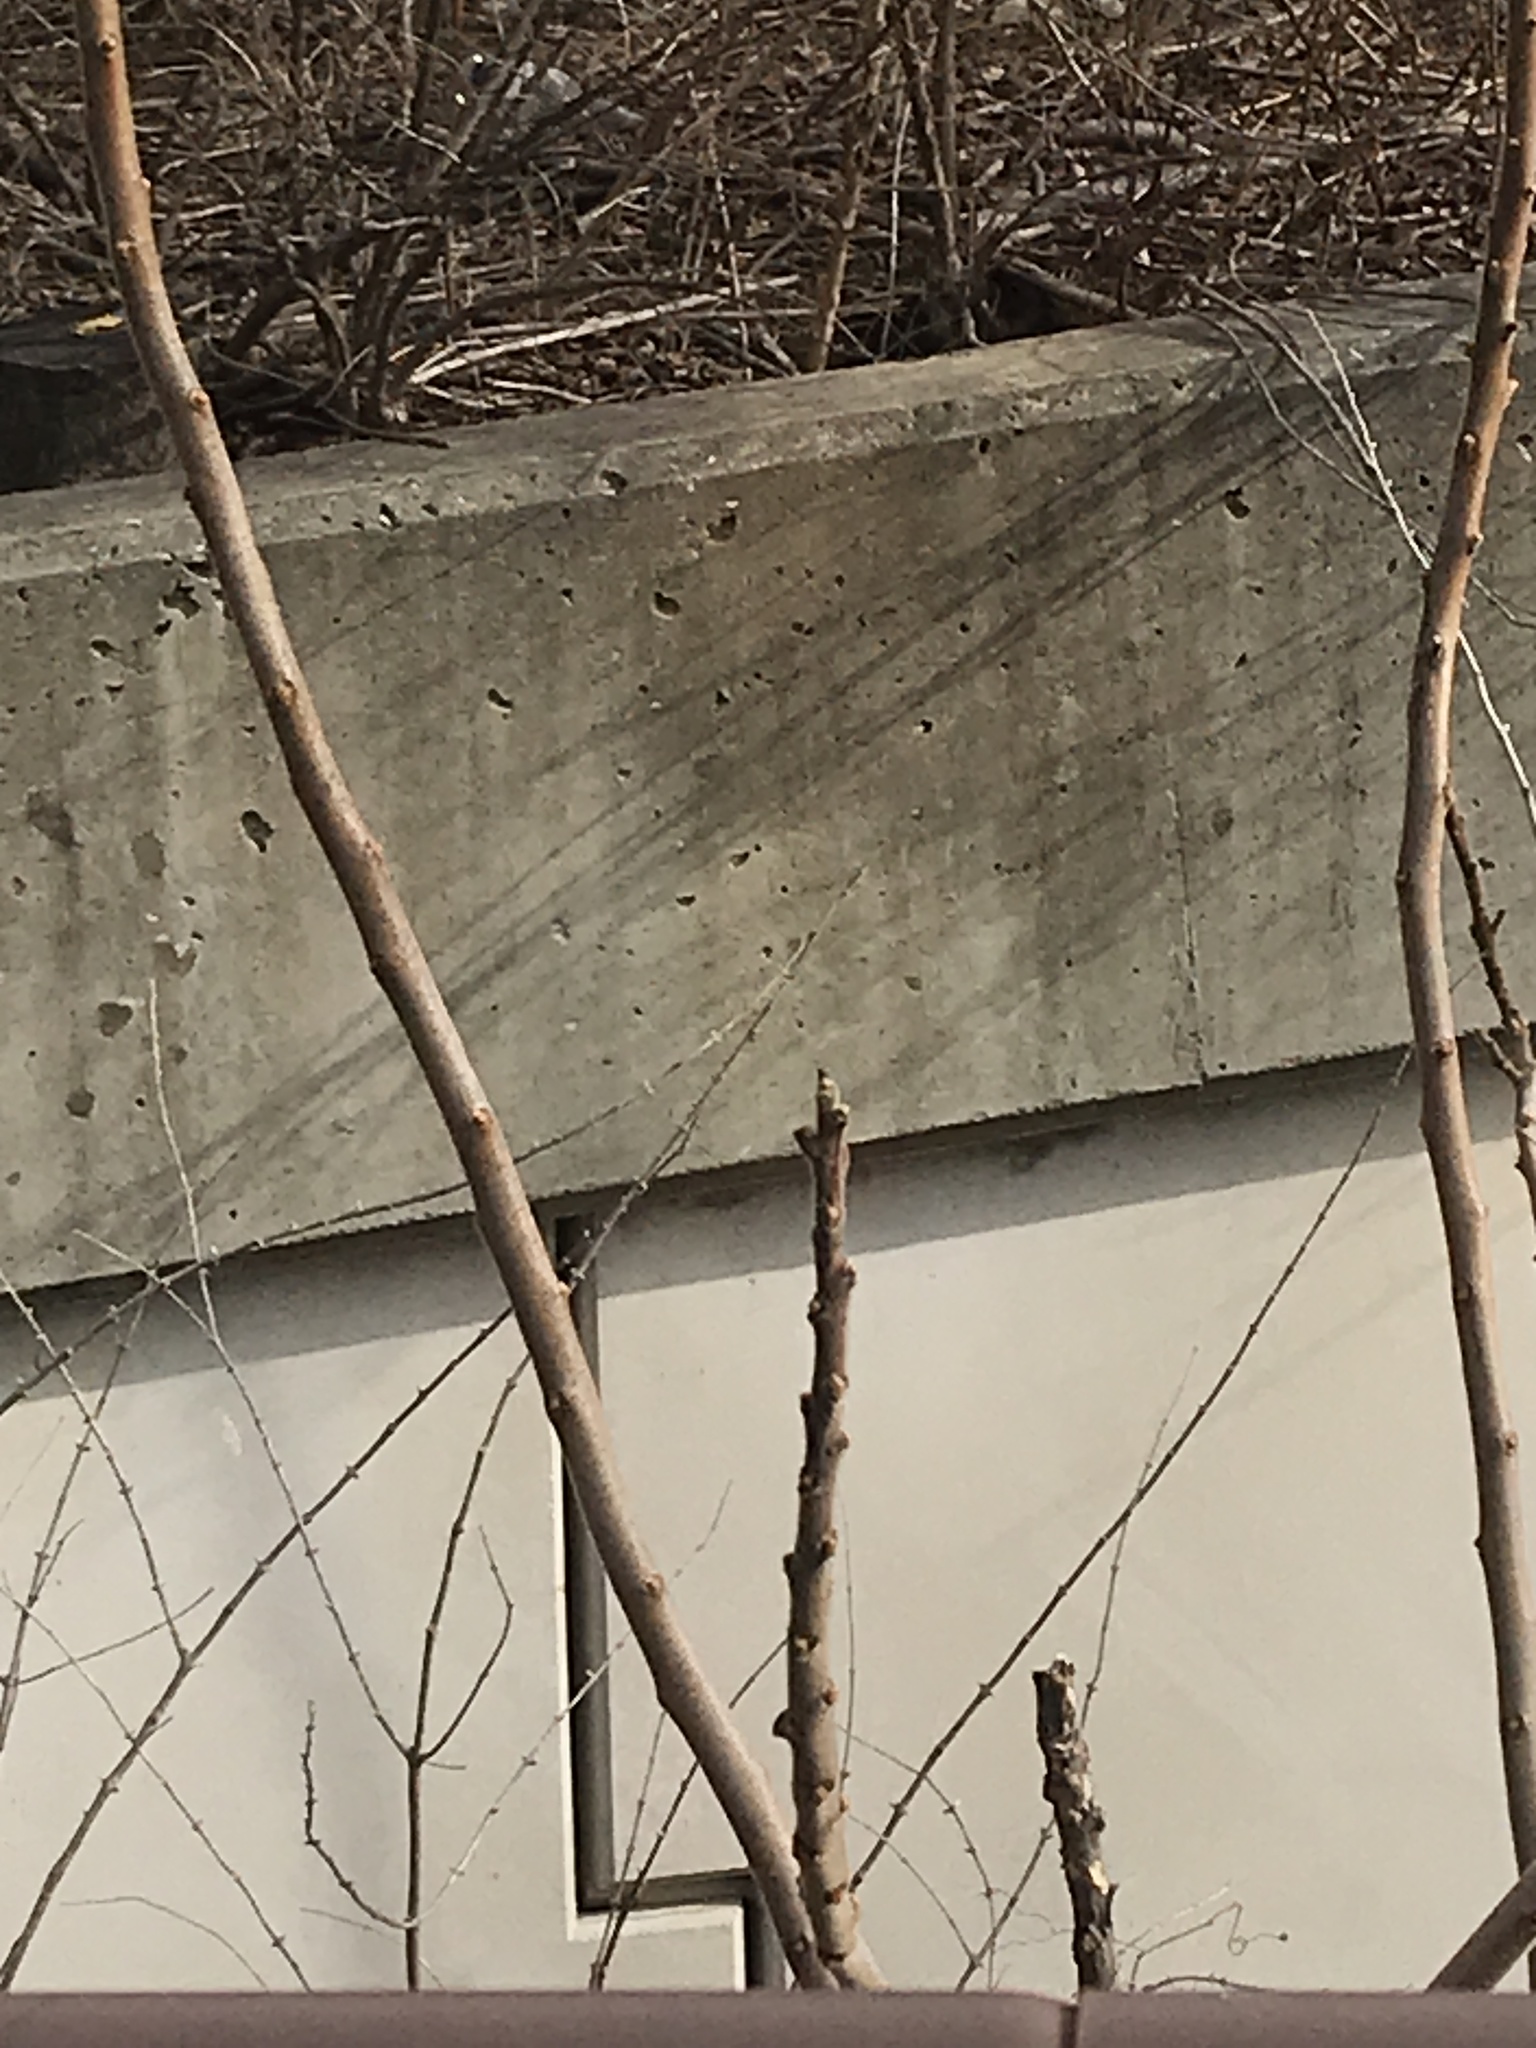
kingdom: Plantae
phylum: Tracheophyta
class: Magnoliopsida
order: Sapindales
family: Anacardiaceae
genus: Rhus
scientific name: Rhus typhina
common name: Staghorn sumac
